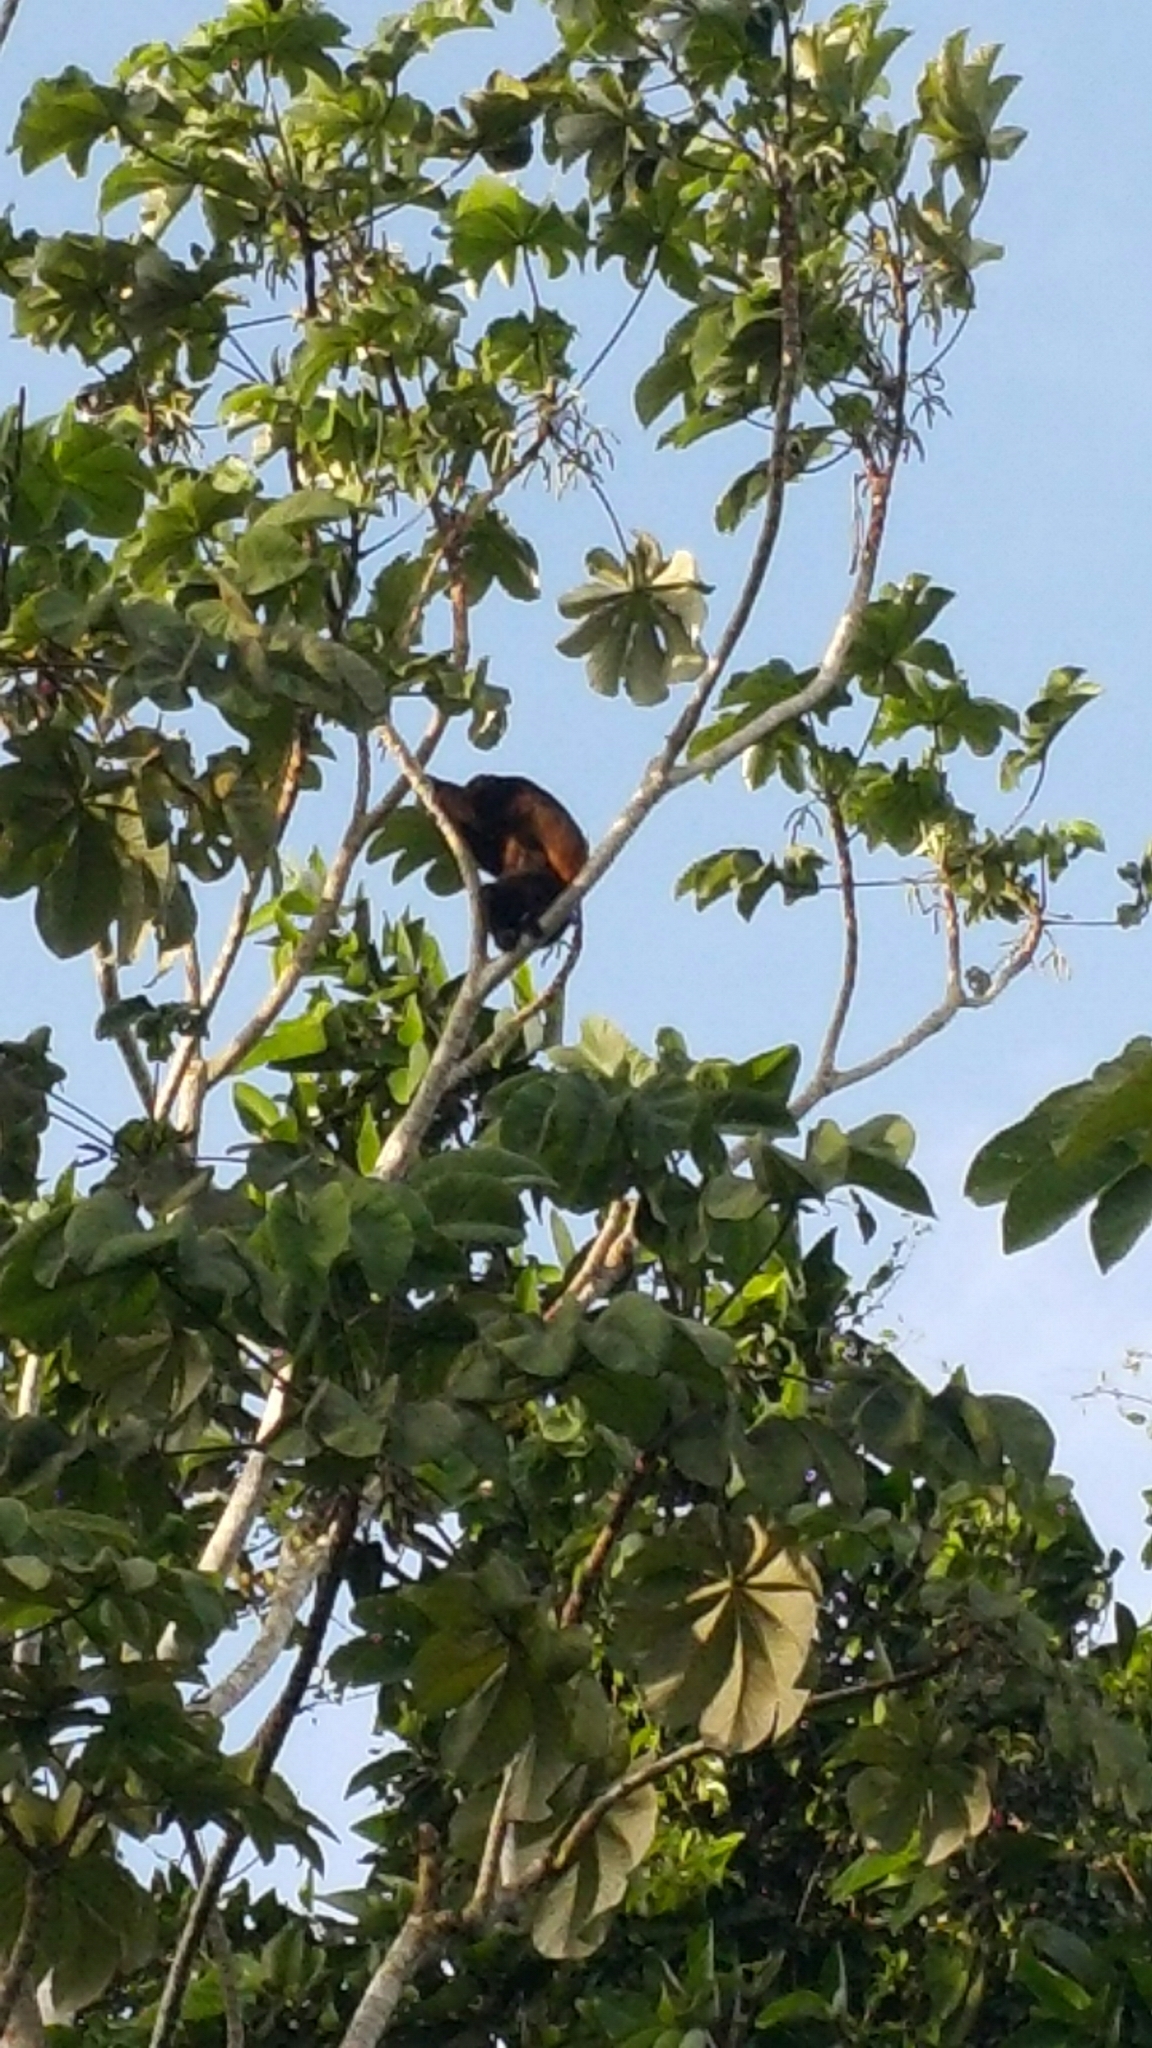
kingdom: Animalia
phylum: Chordata
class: Mammalia
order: Primates
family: Atelidae
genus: Alouatta
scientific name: Alouatta palliata
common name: Mantled howler
